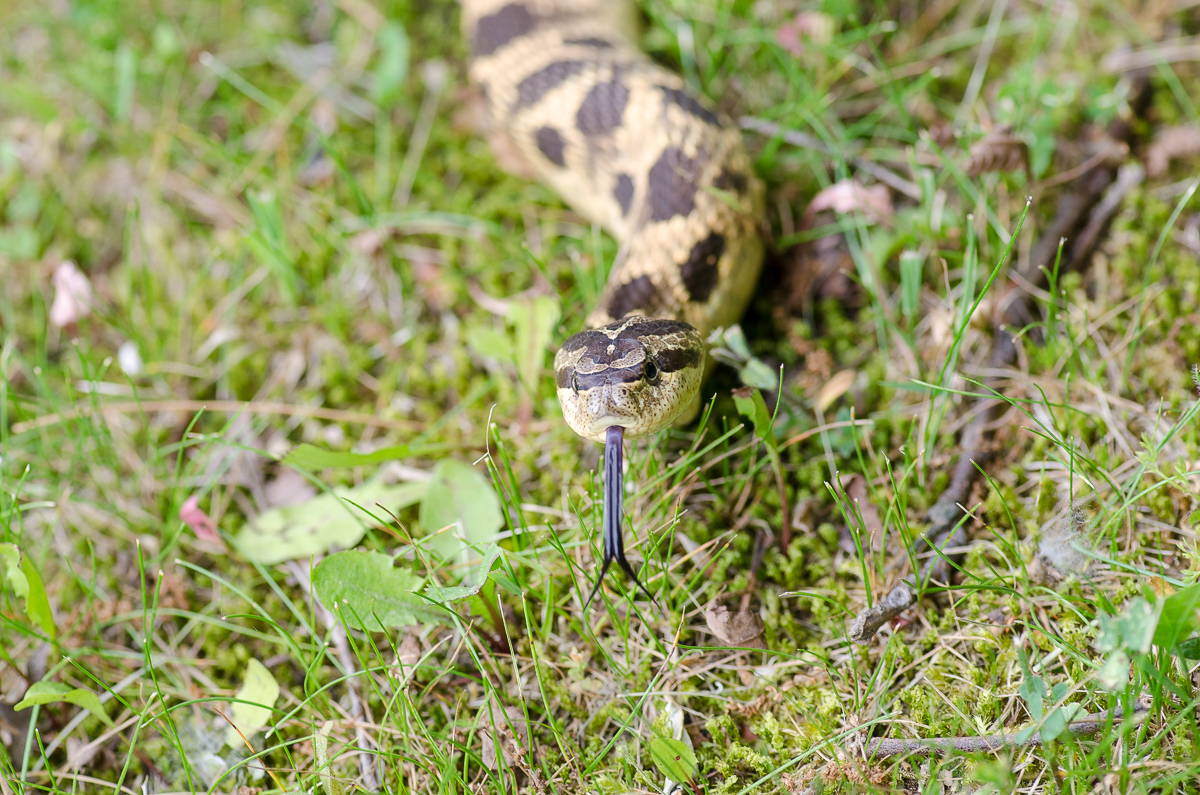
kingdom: Animalia
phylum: Chordata
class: Squamata
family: Colubridae
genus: Heterodon
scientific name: Heterodon platirhinos
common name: Eastern hognose snake
